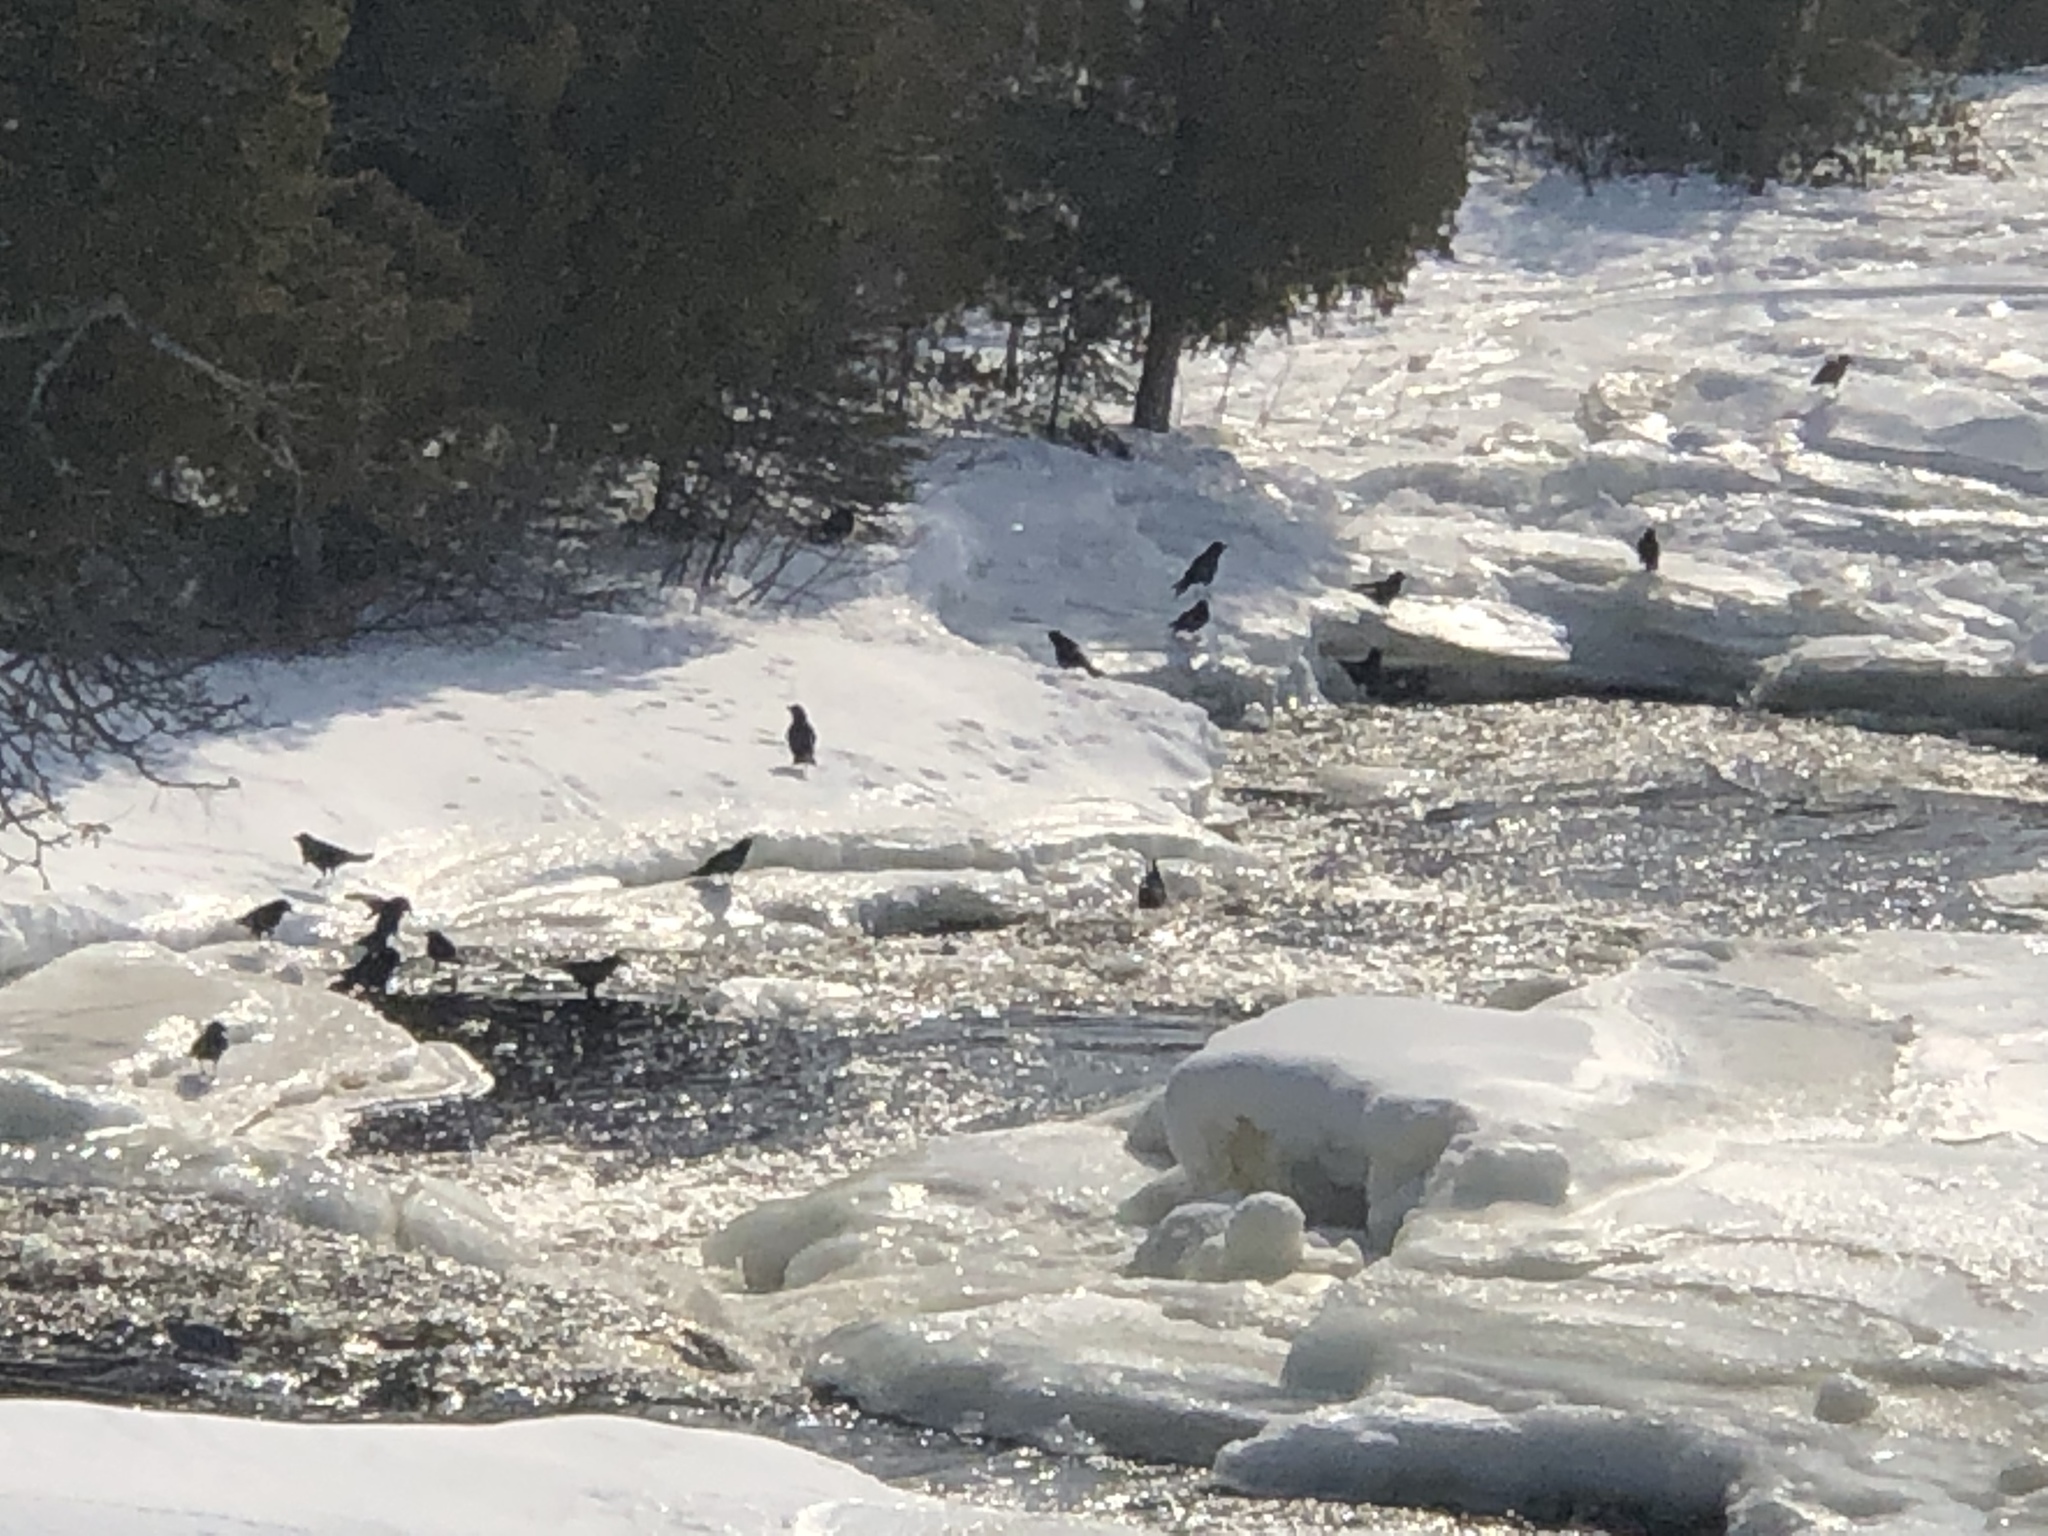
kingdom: Animalia
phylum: Chordata
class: Aves
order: Passeriformes
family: Corvidae
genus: Corvus
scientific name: Corvus brachyrhynchos
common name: American crow
